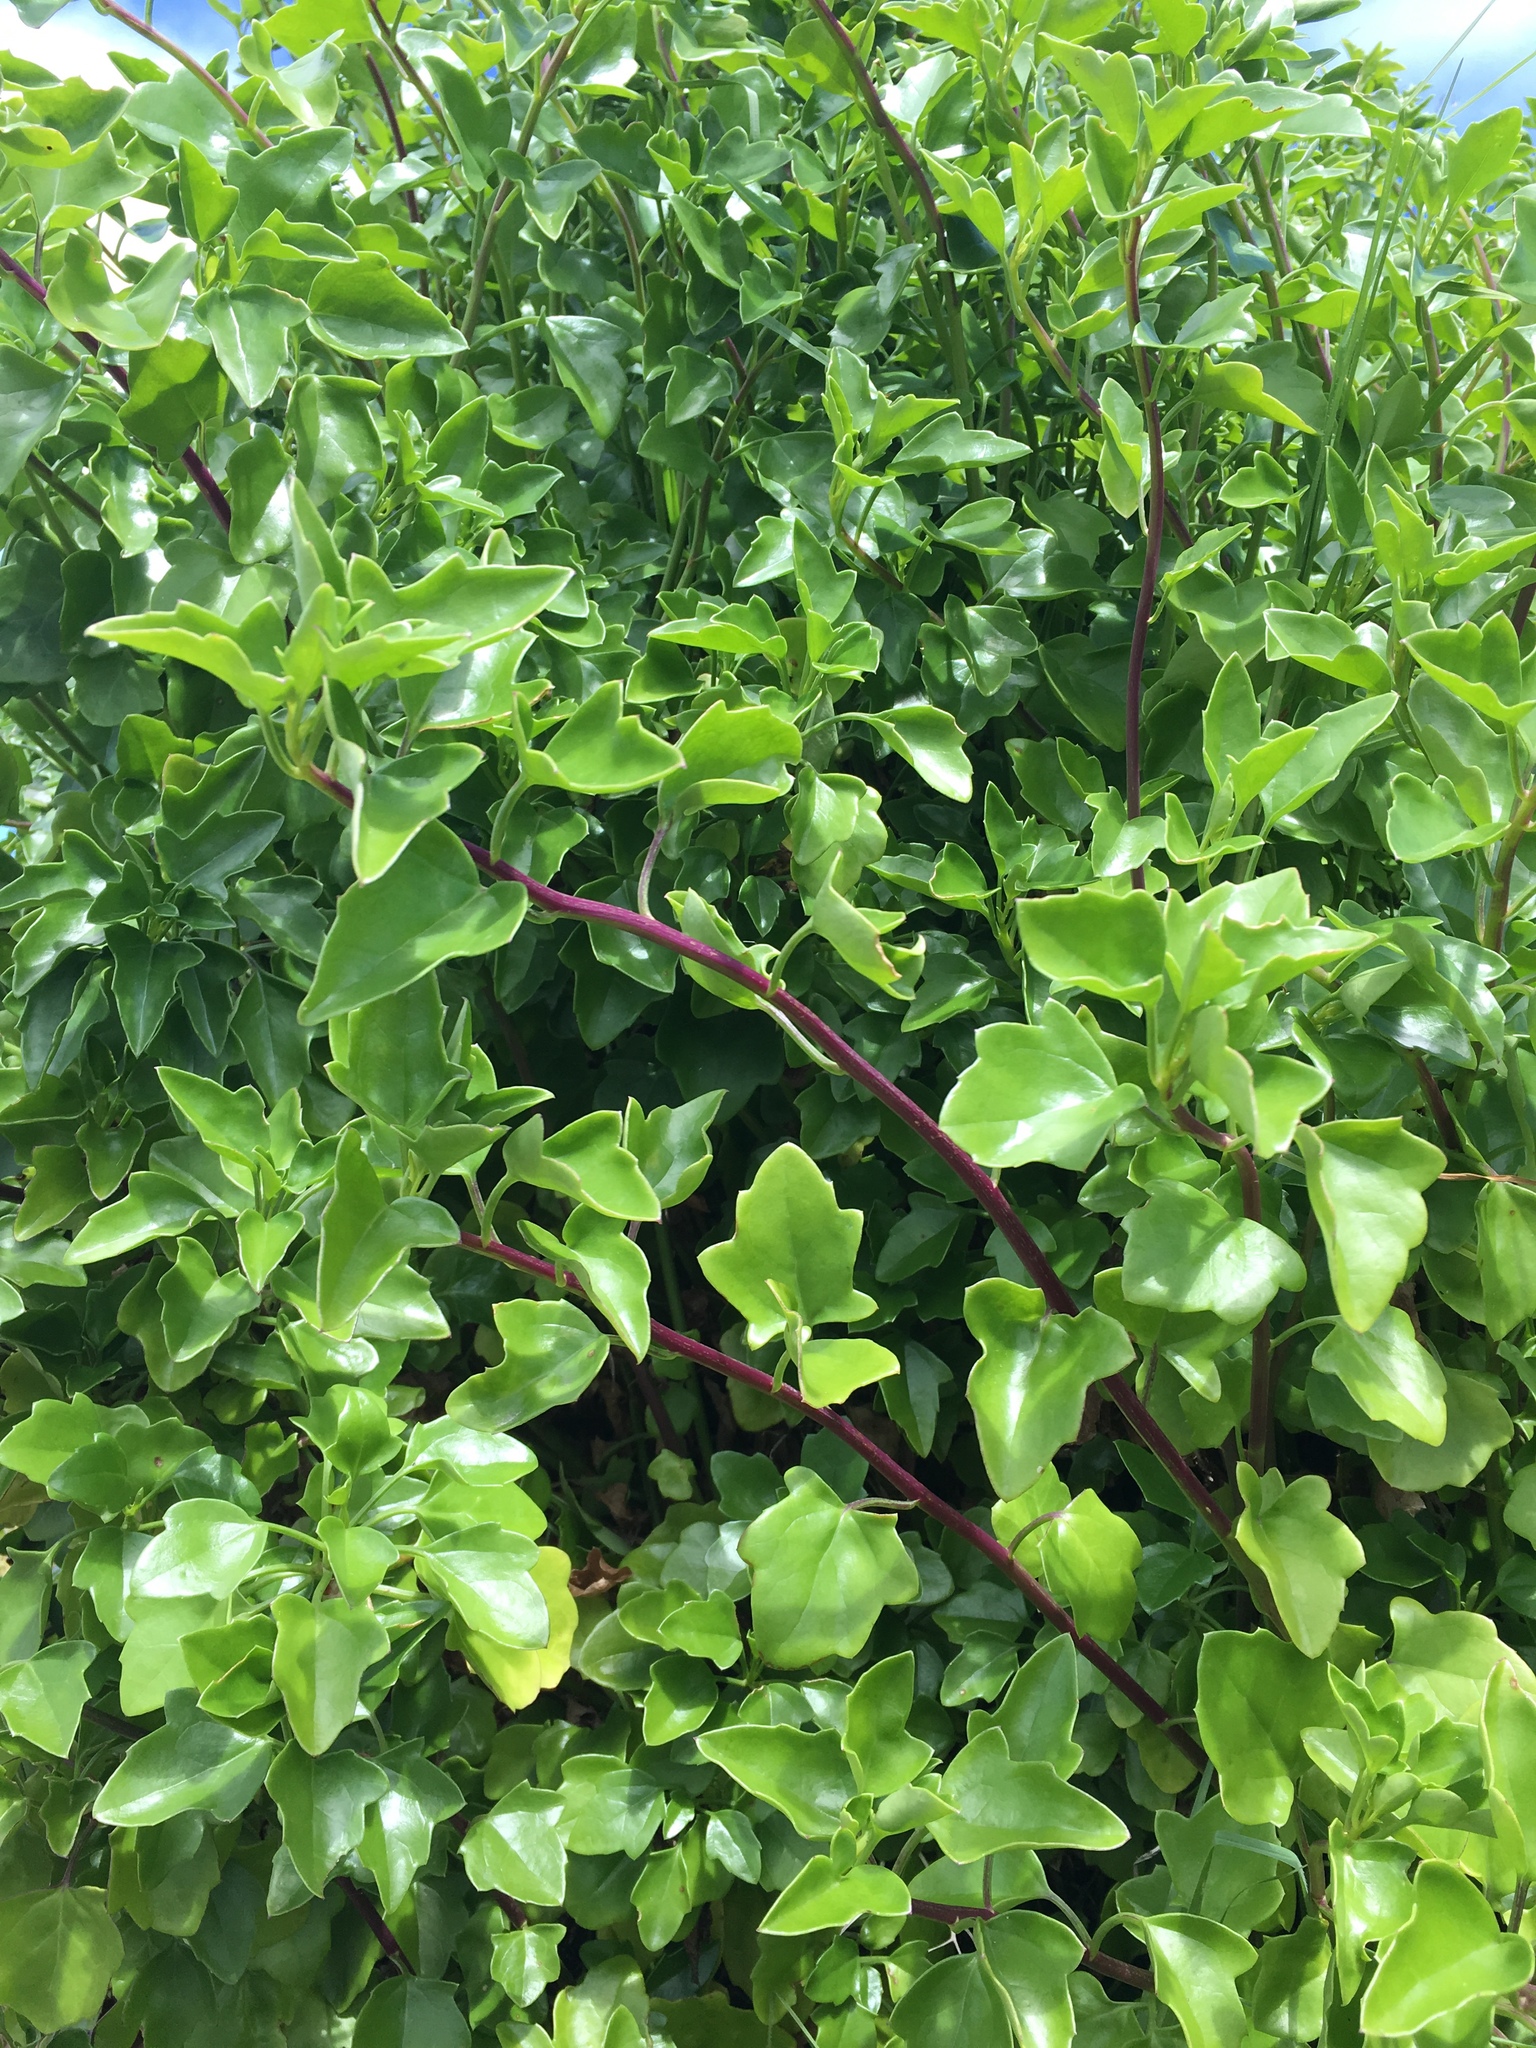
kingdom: Plantae
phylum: Tracheophyta
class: Magnoliopsida
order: Asterales
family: Asteraceae
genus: Senecio
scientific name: Senecio angulatus
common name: Climbing groundsel
